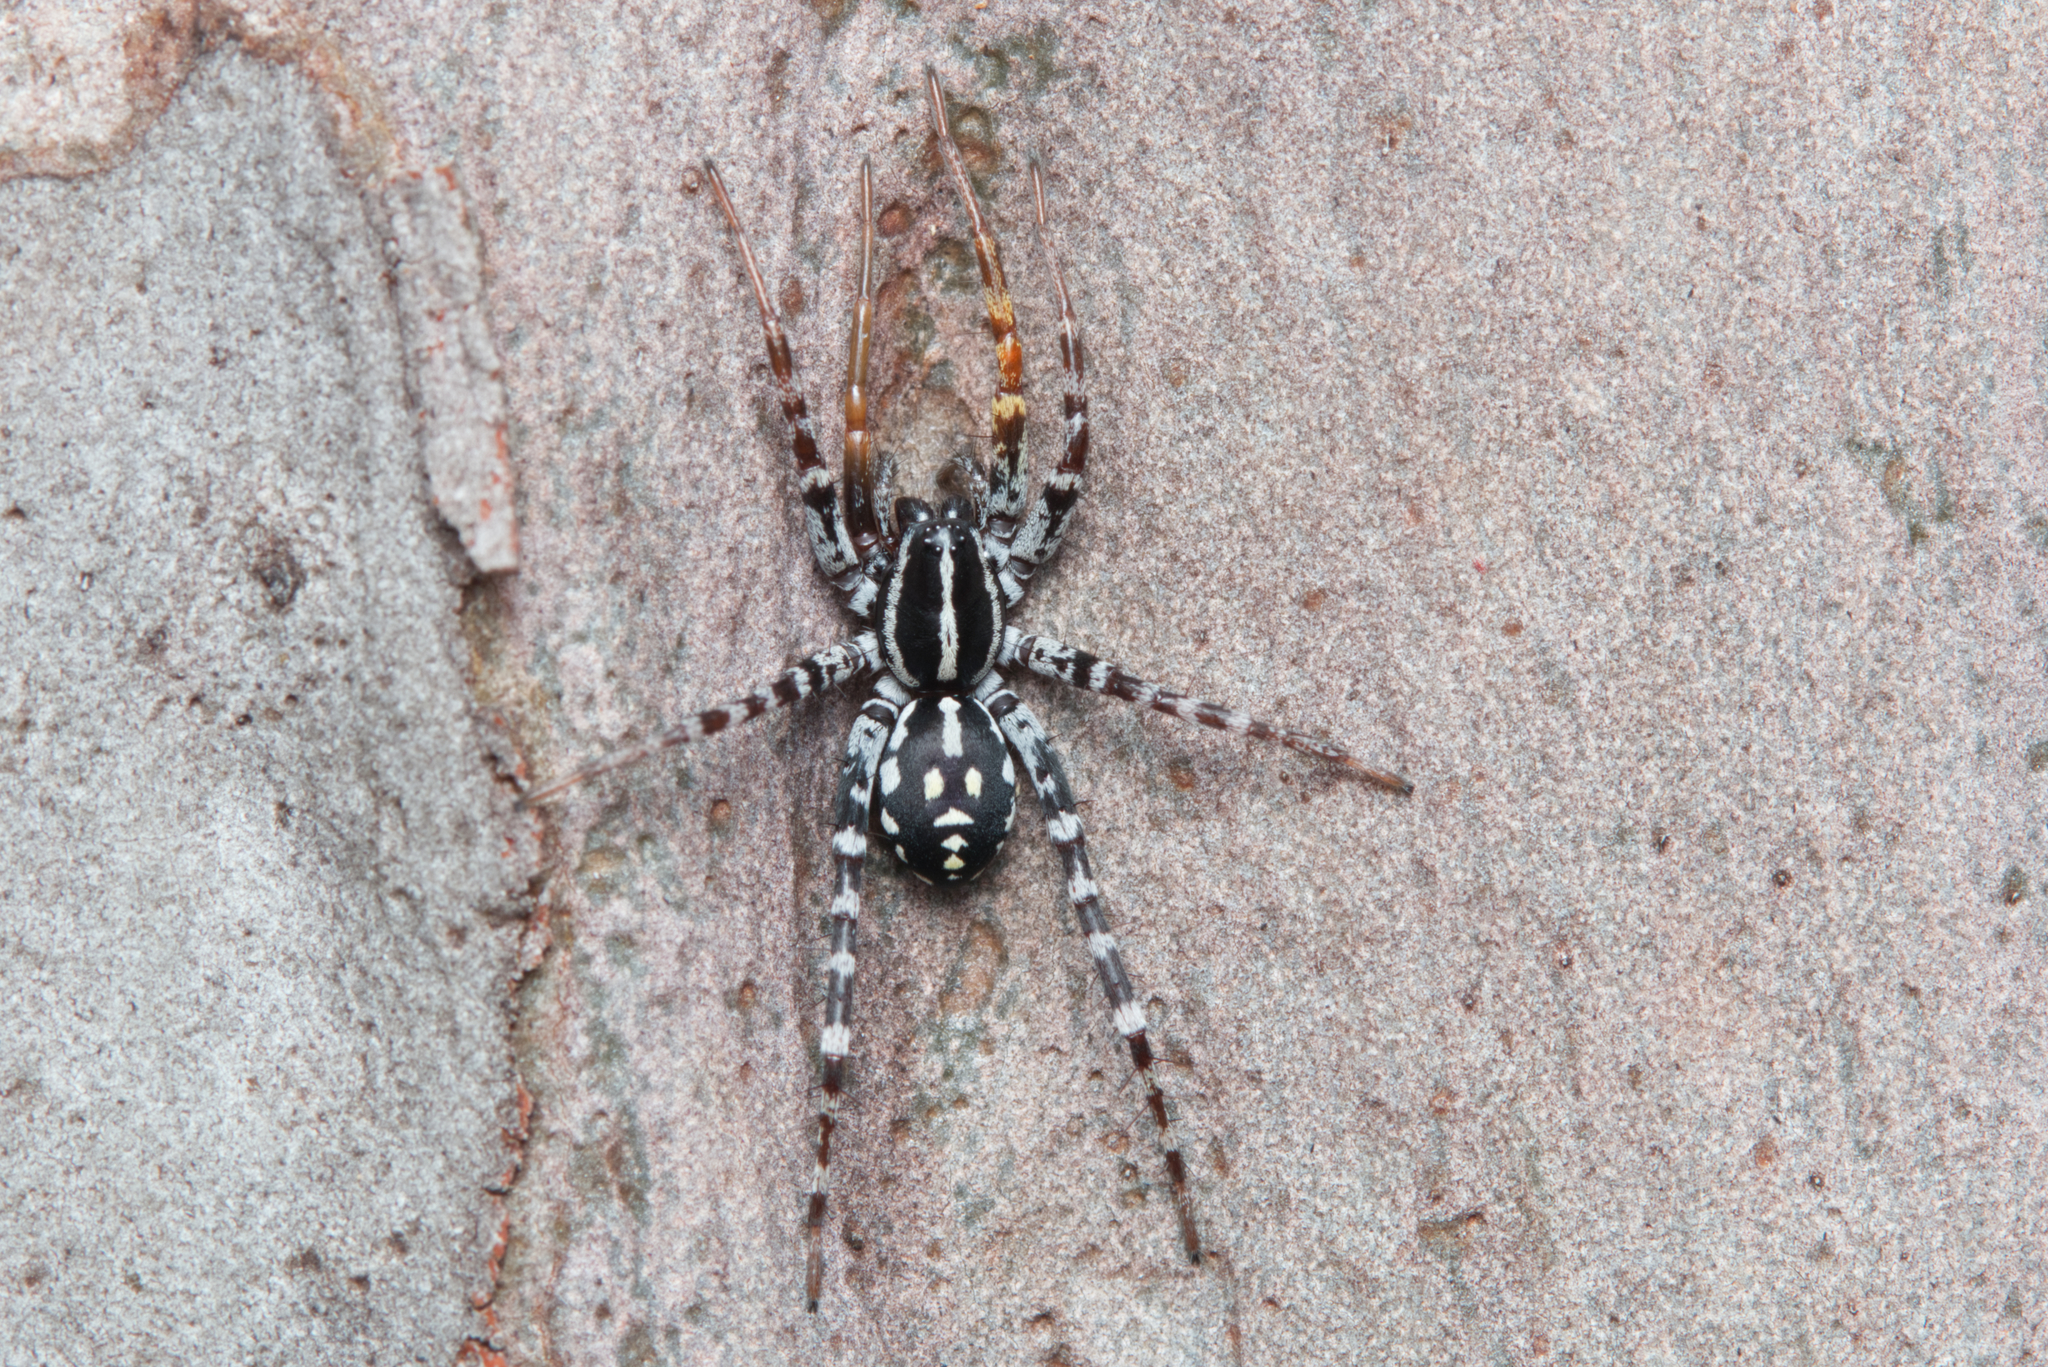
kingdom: Animalia
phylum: Arthropoda
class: Arachnida
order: Araneae
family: Corinnidae
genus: Nyssus
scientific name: Nyssus coloripes
